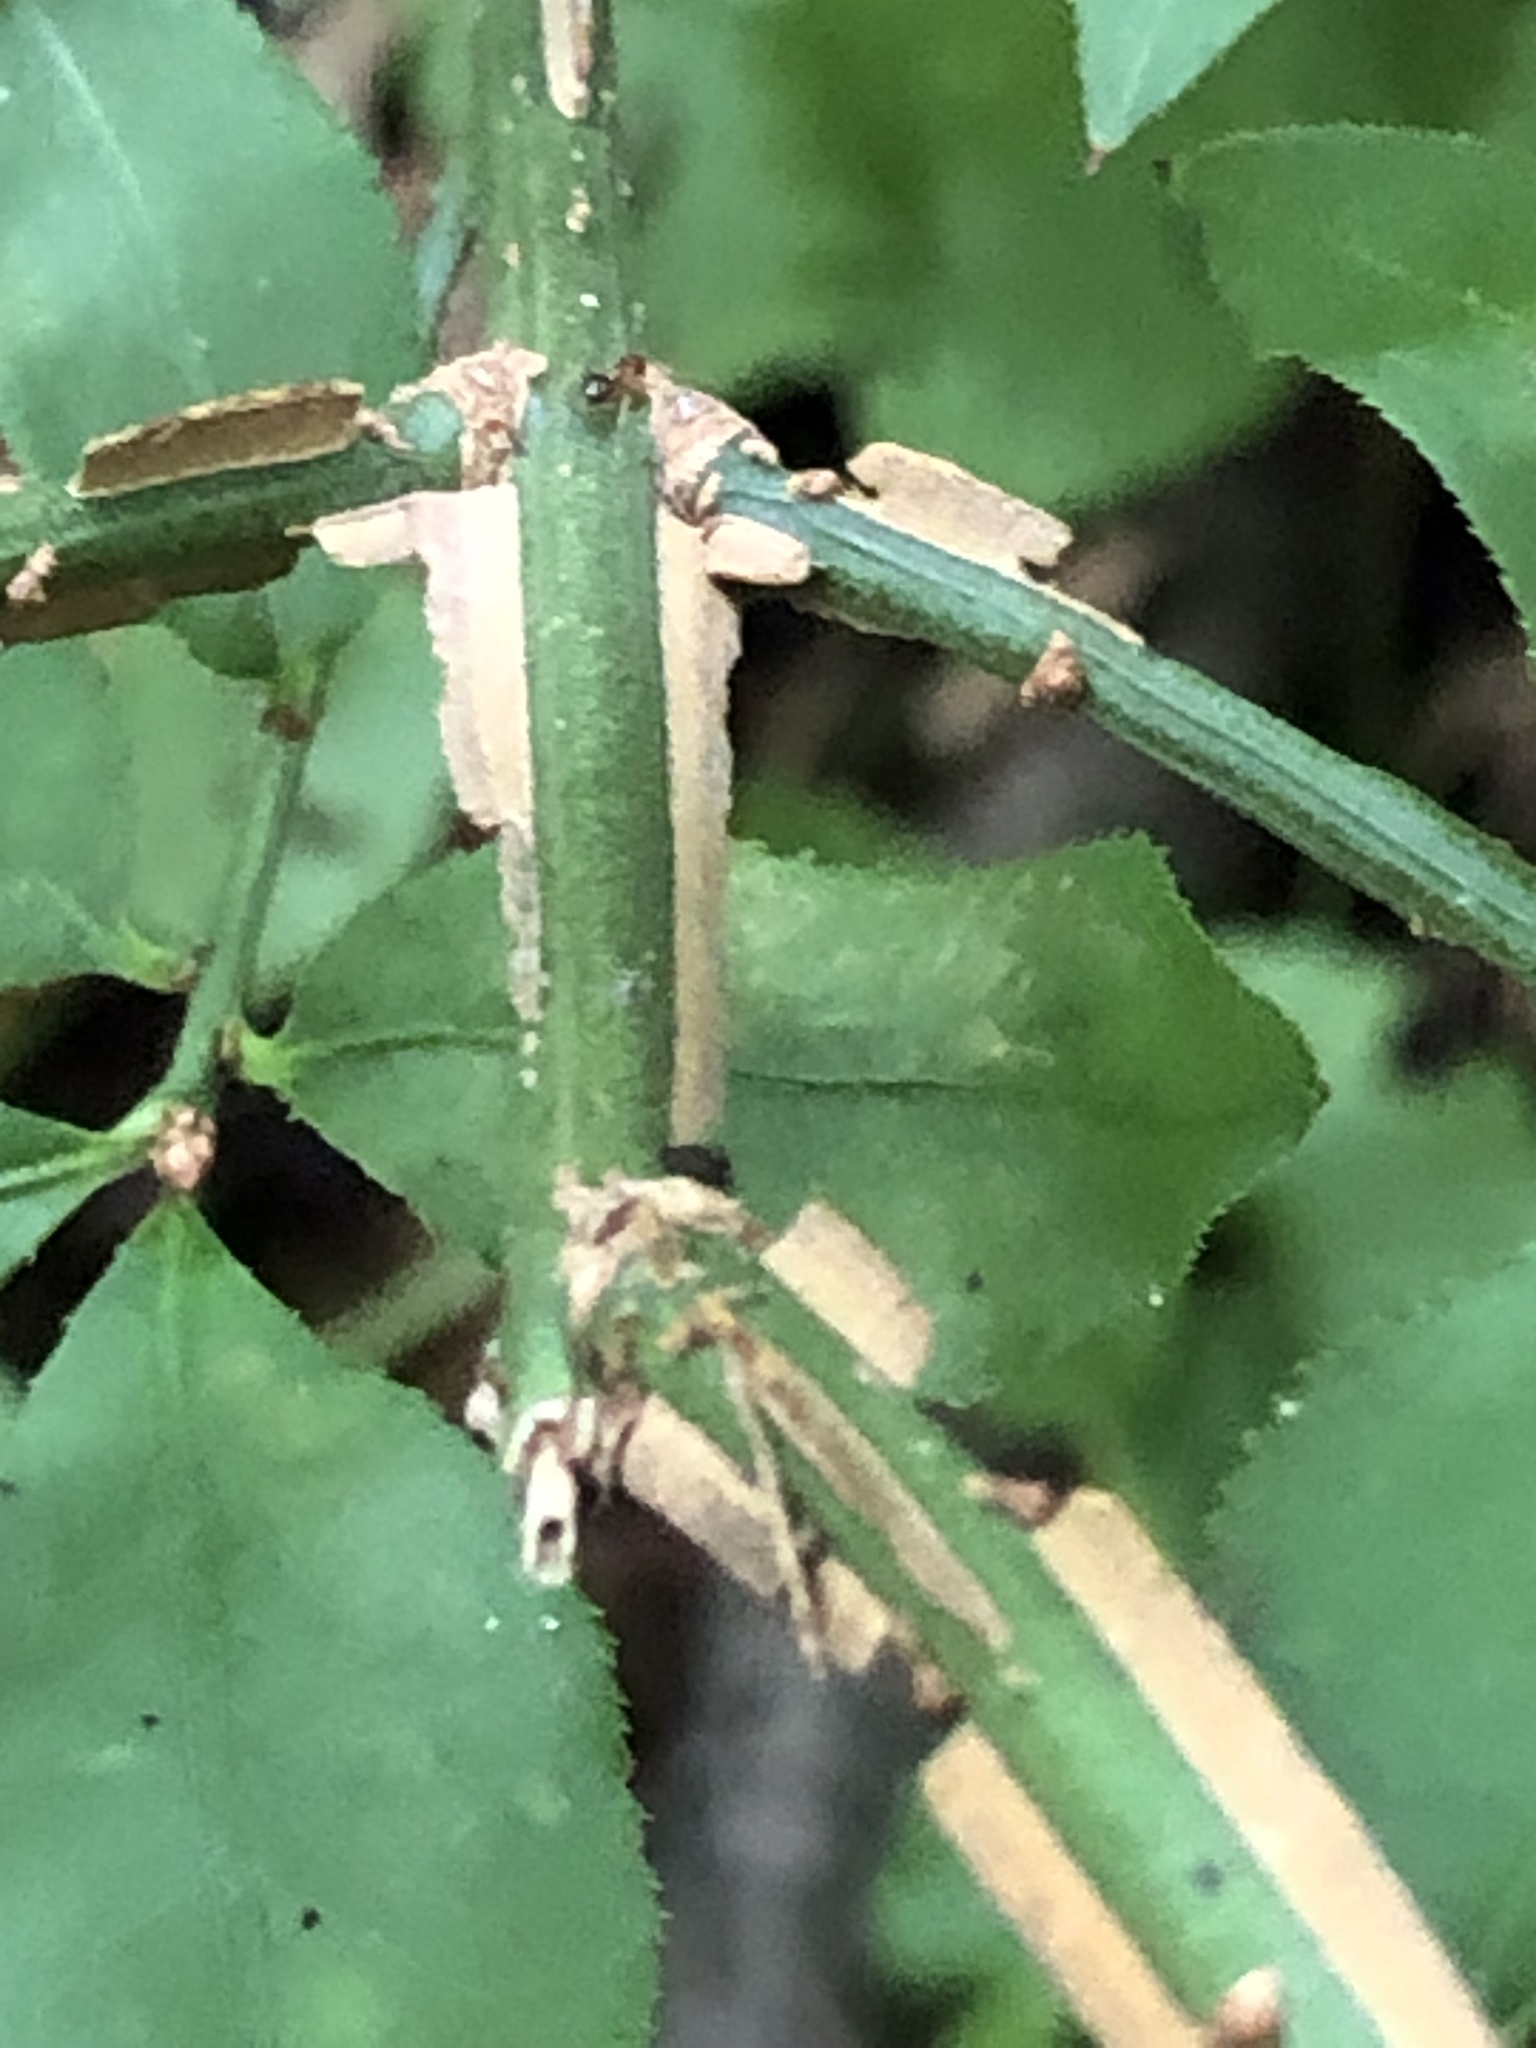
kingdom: Plantae
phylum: Tracheophyta
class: Magnoliopsida
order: Celastrales
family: Celastraceae
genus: Euonymus
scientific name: Euonymus alatus
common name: Winged euonymus
